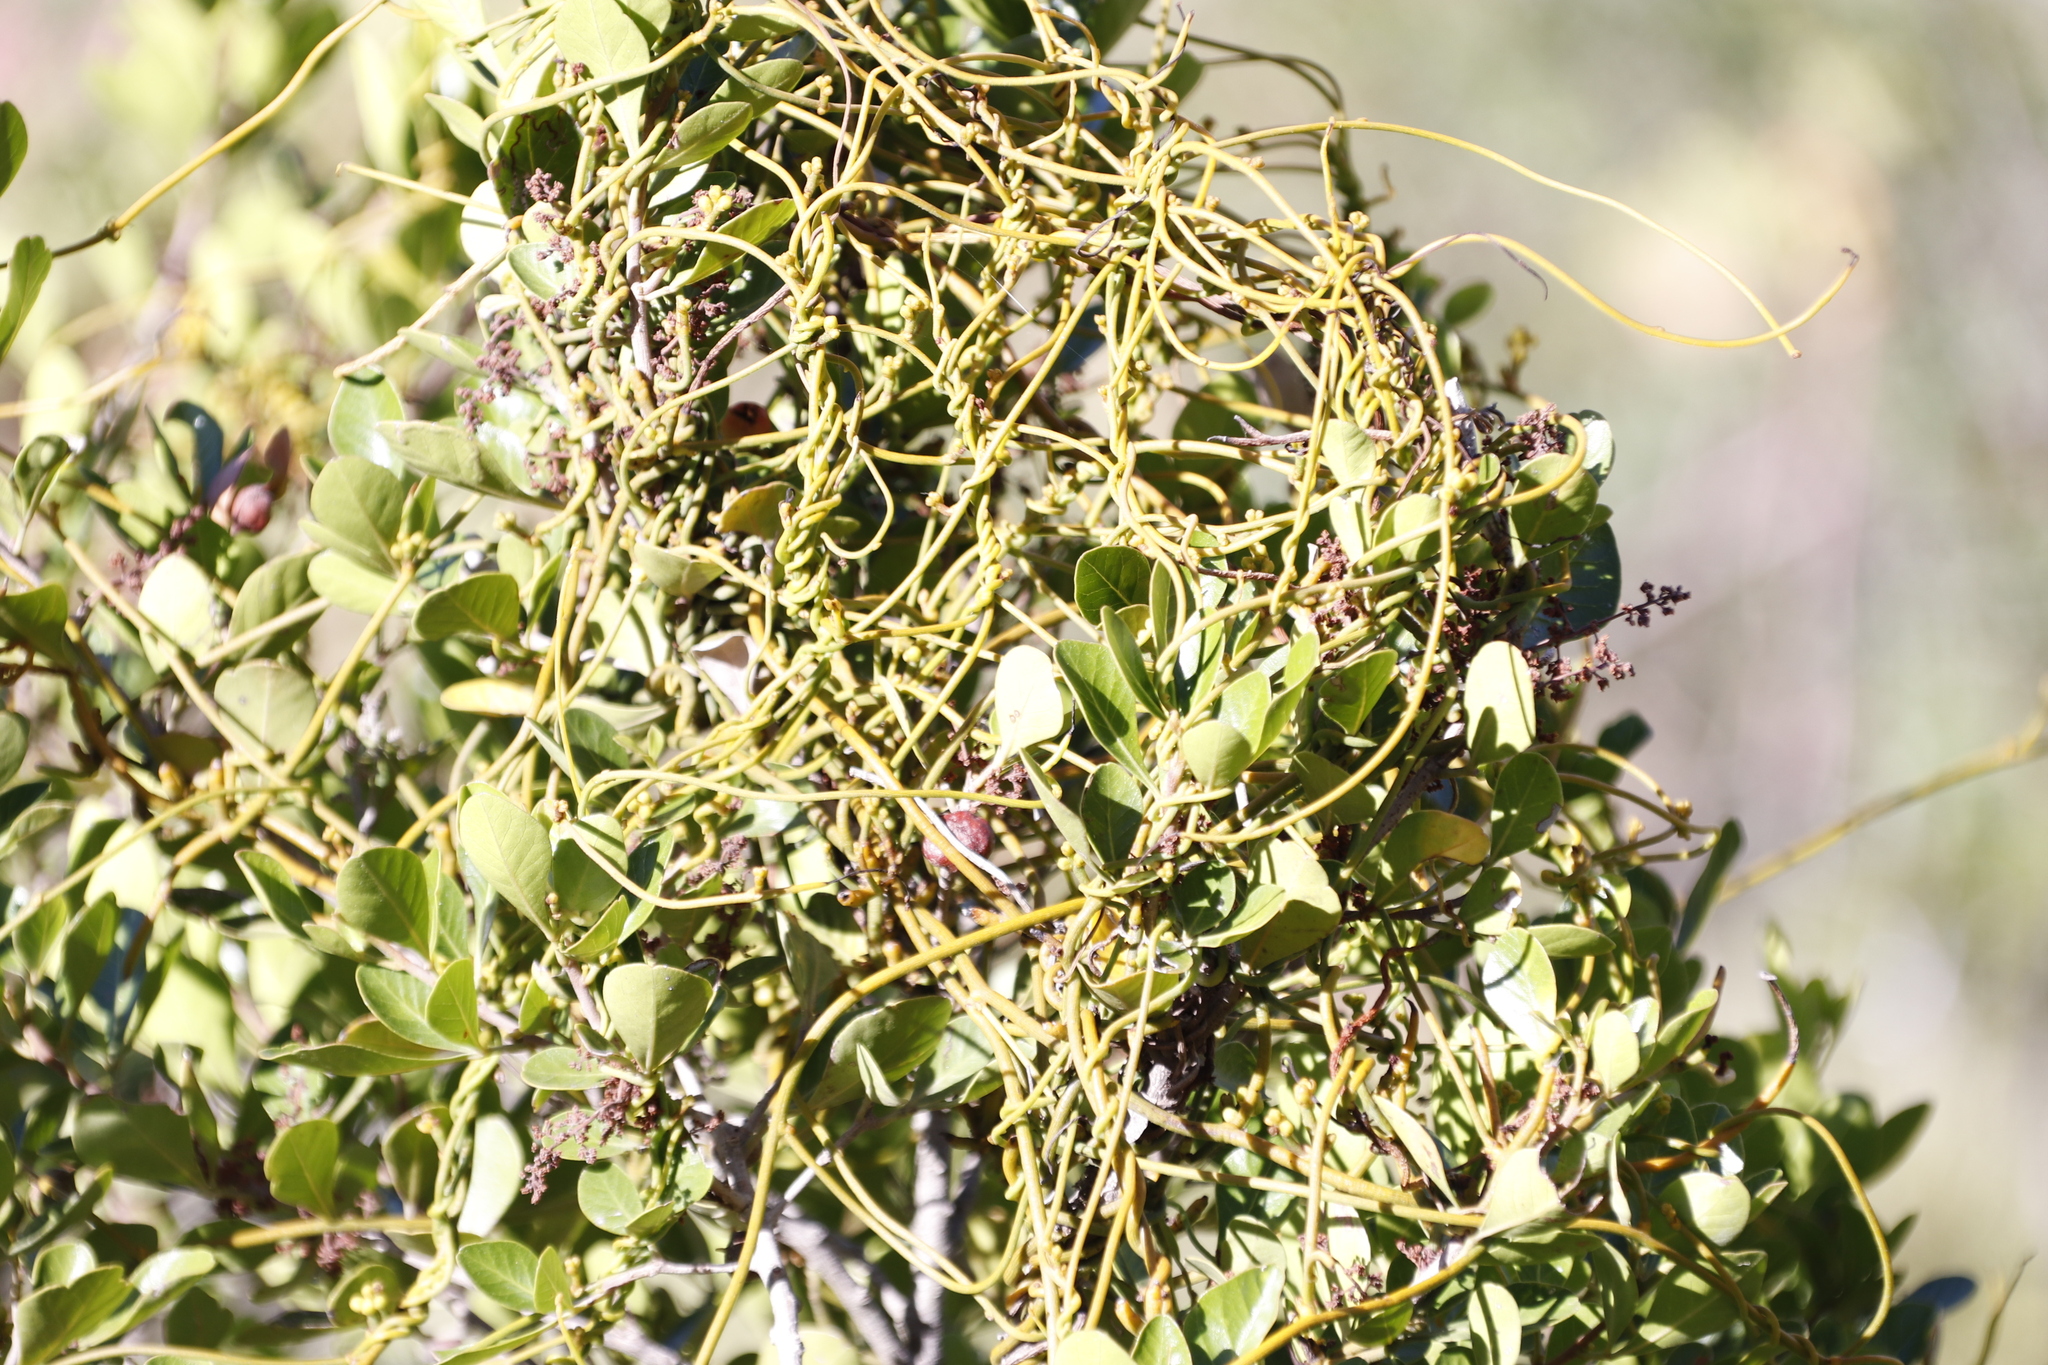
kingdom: Plantae
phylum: Tracheophyta
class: Magnoliopsida
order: Laurales
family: Lauraceae
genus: Cassytha
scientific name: Cassytha ciliolata
